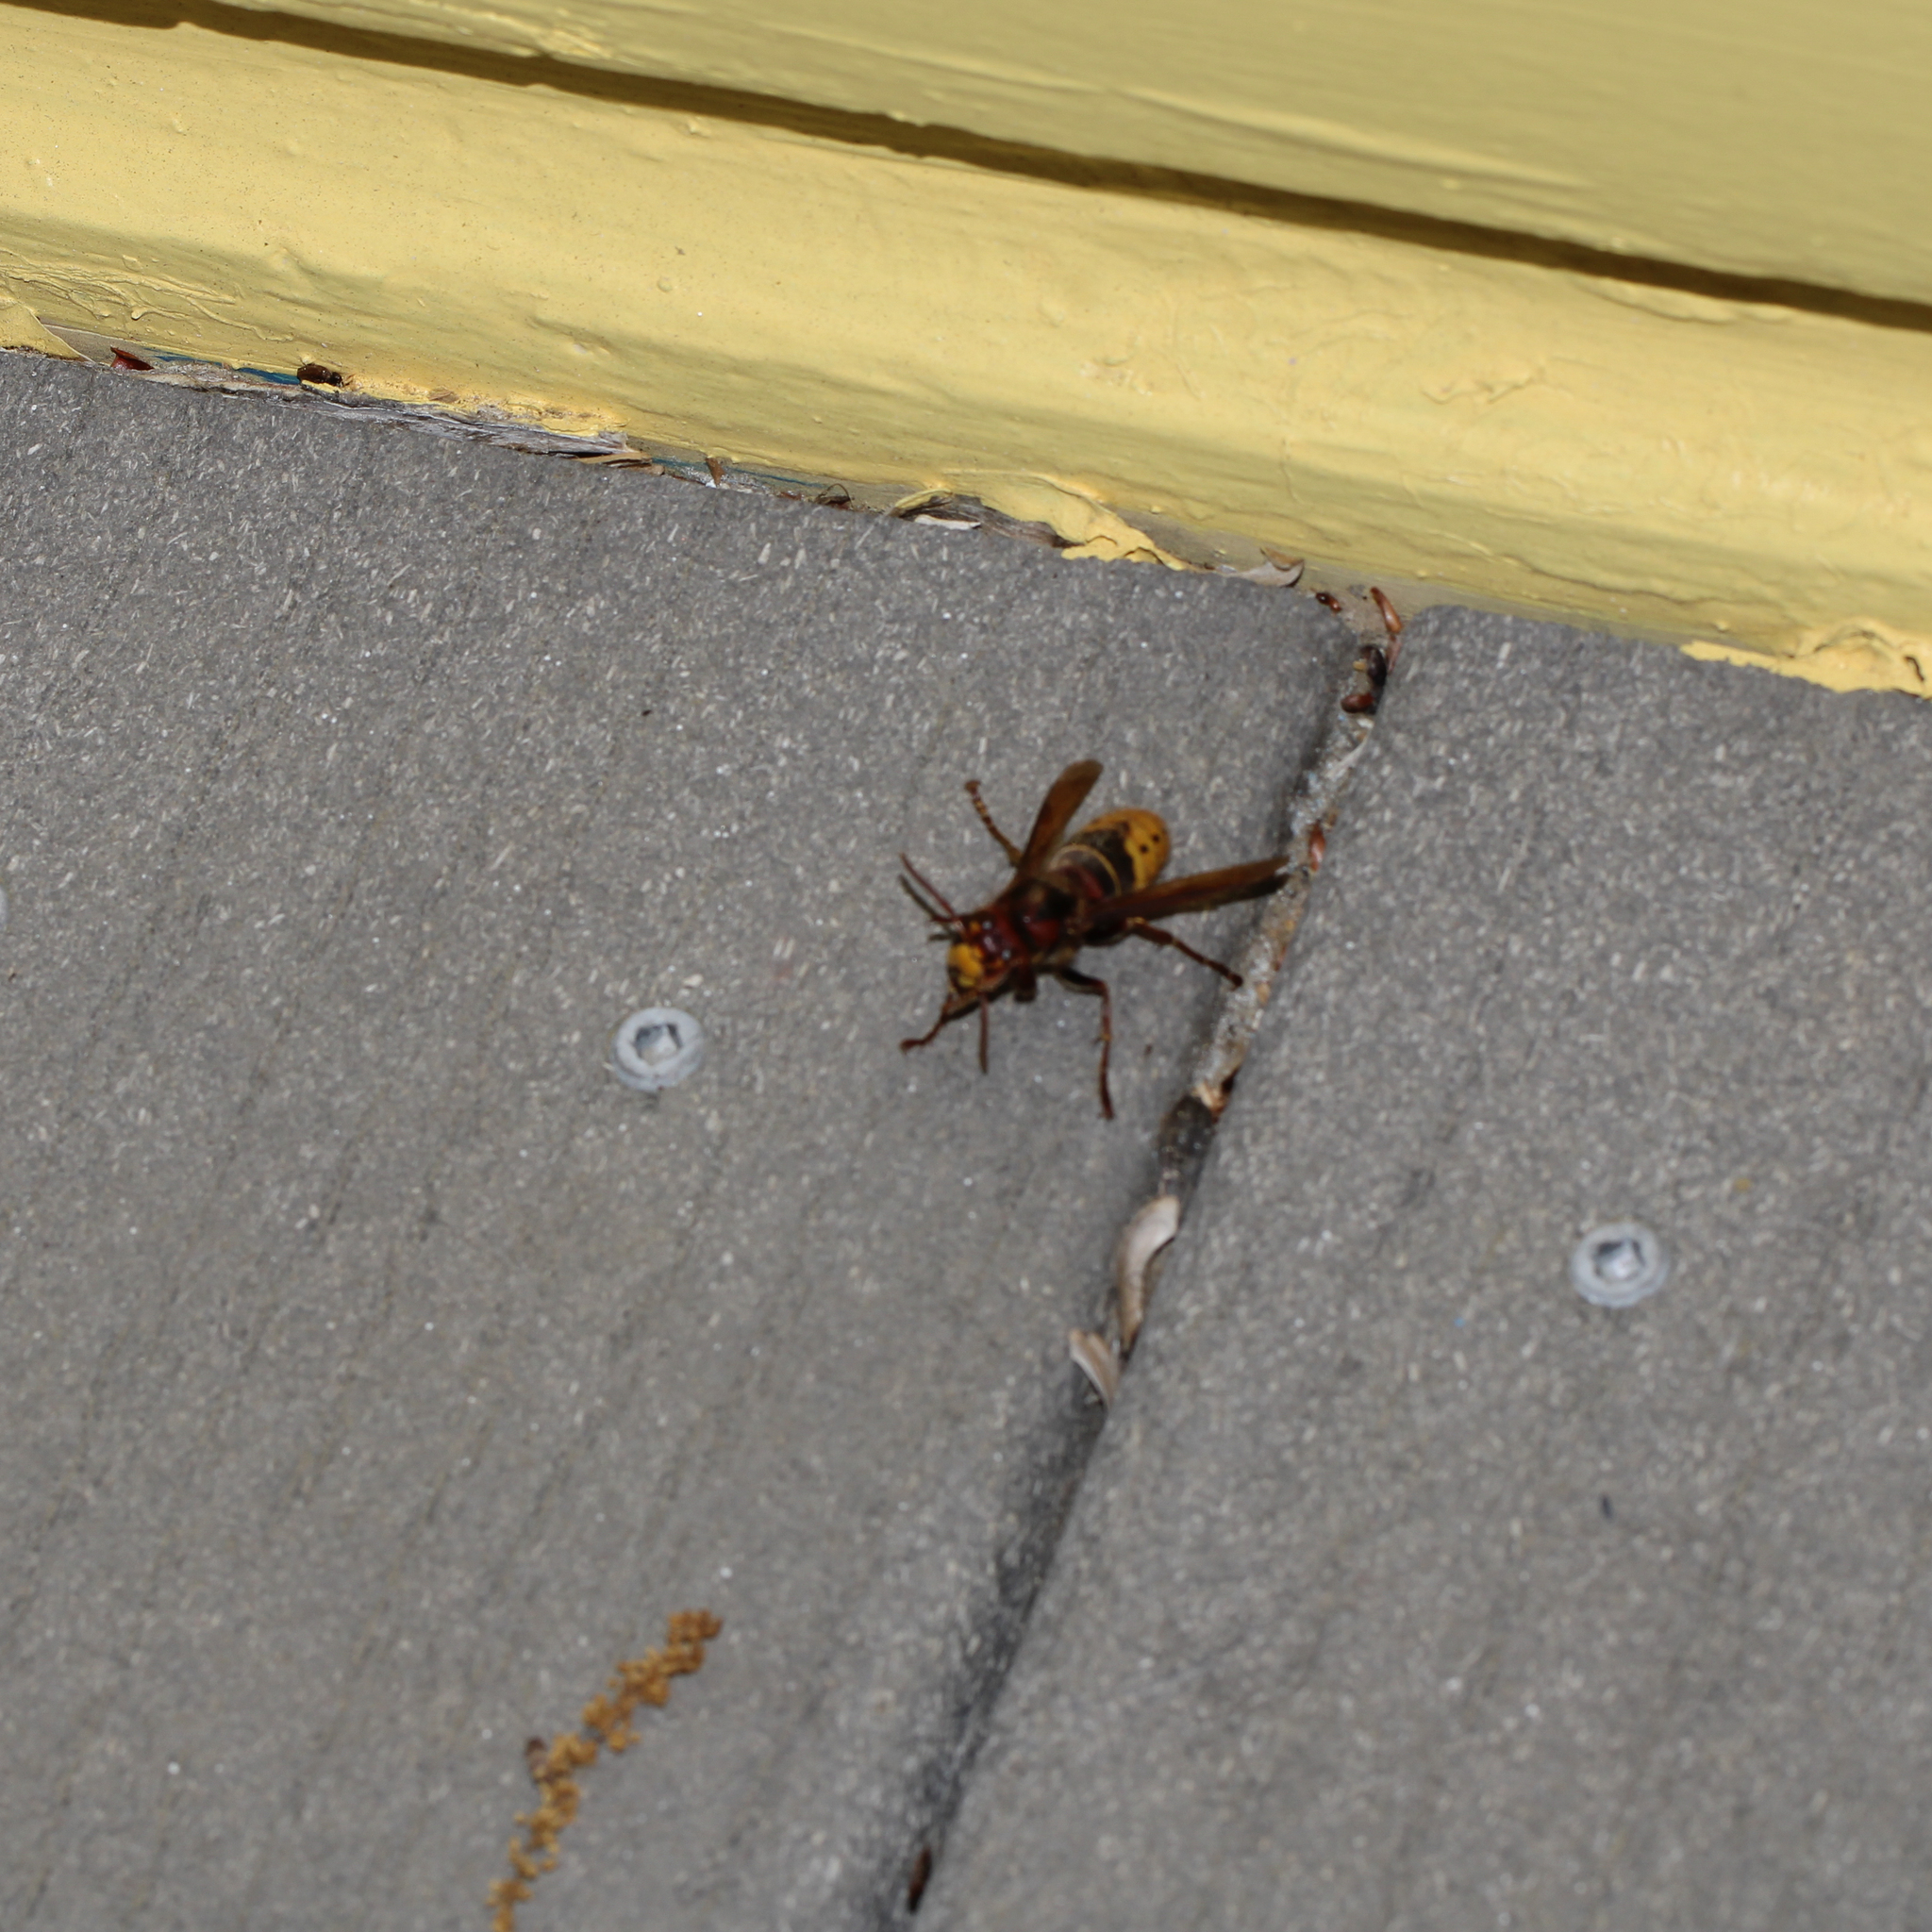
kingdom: Animalia
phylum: Arthropoda
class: Insecta
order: Hymenoptera
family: Vespidae
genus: Vespa
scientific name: Vespa crabro
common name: Hornet
